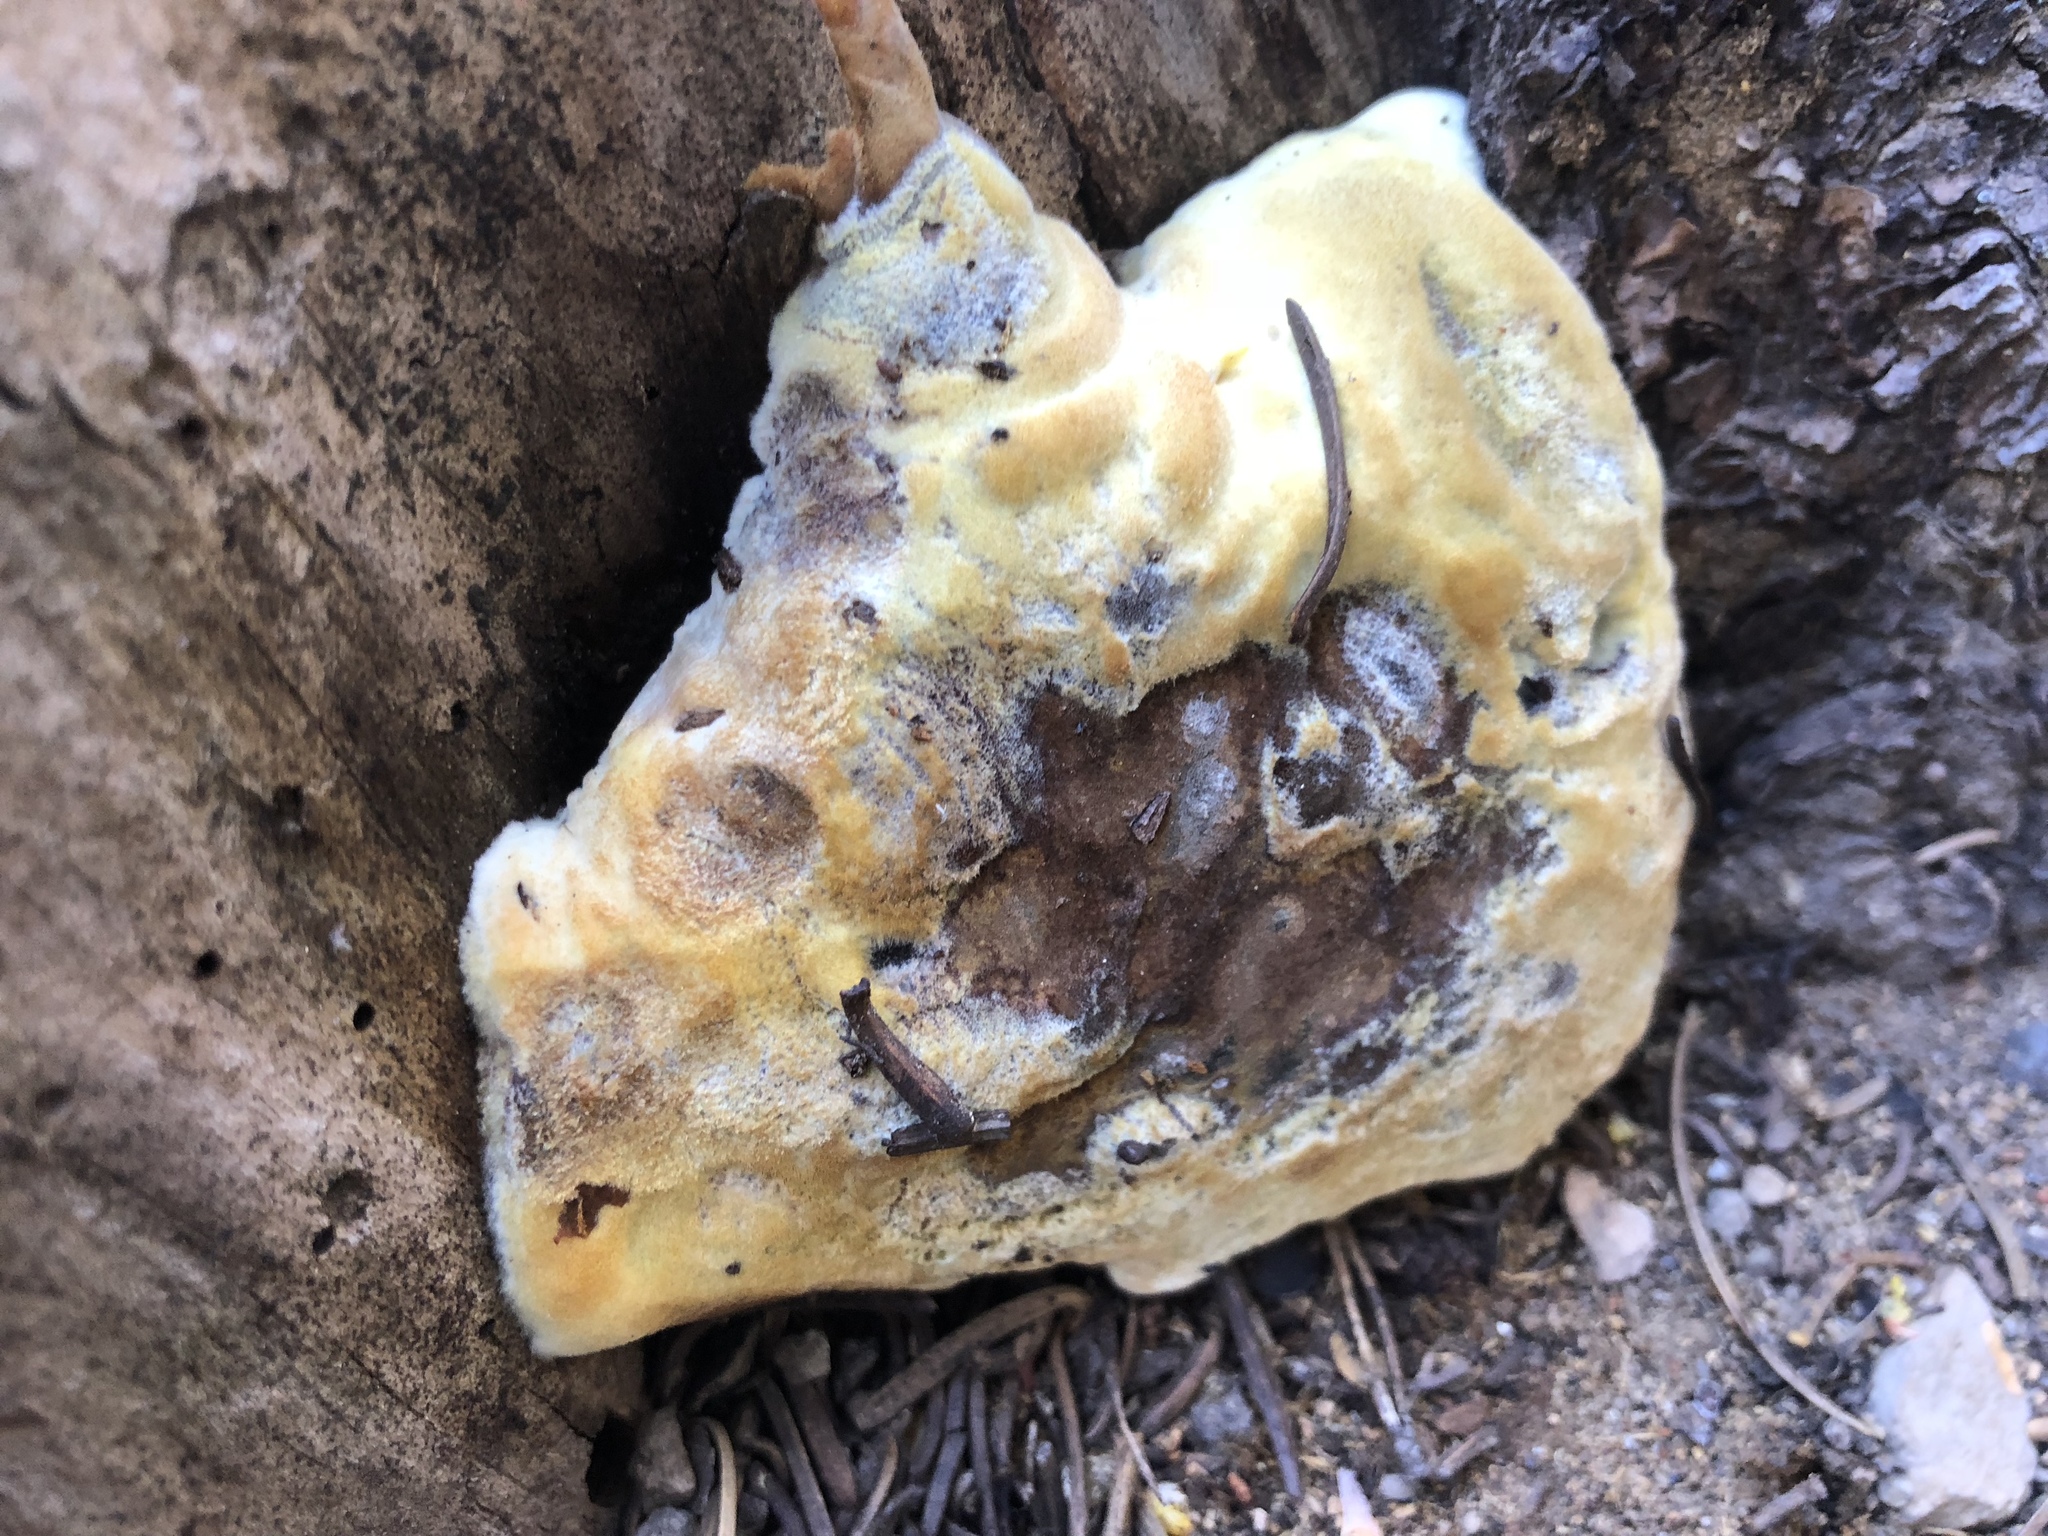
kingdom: Fungi
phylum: Basidiomycota
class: Agaricomycetes
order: Polyporales
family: Laetiporaceae
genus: Phaeolus
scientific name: Phaeolus schweinitzii
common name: Dyer's mazegill
